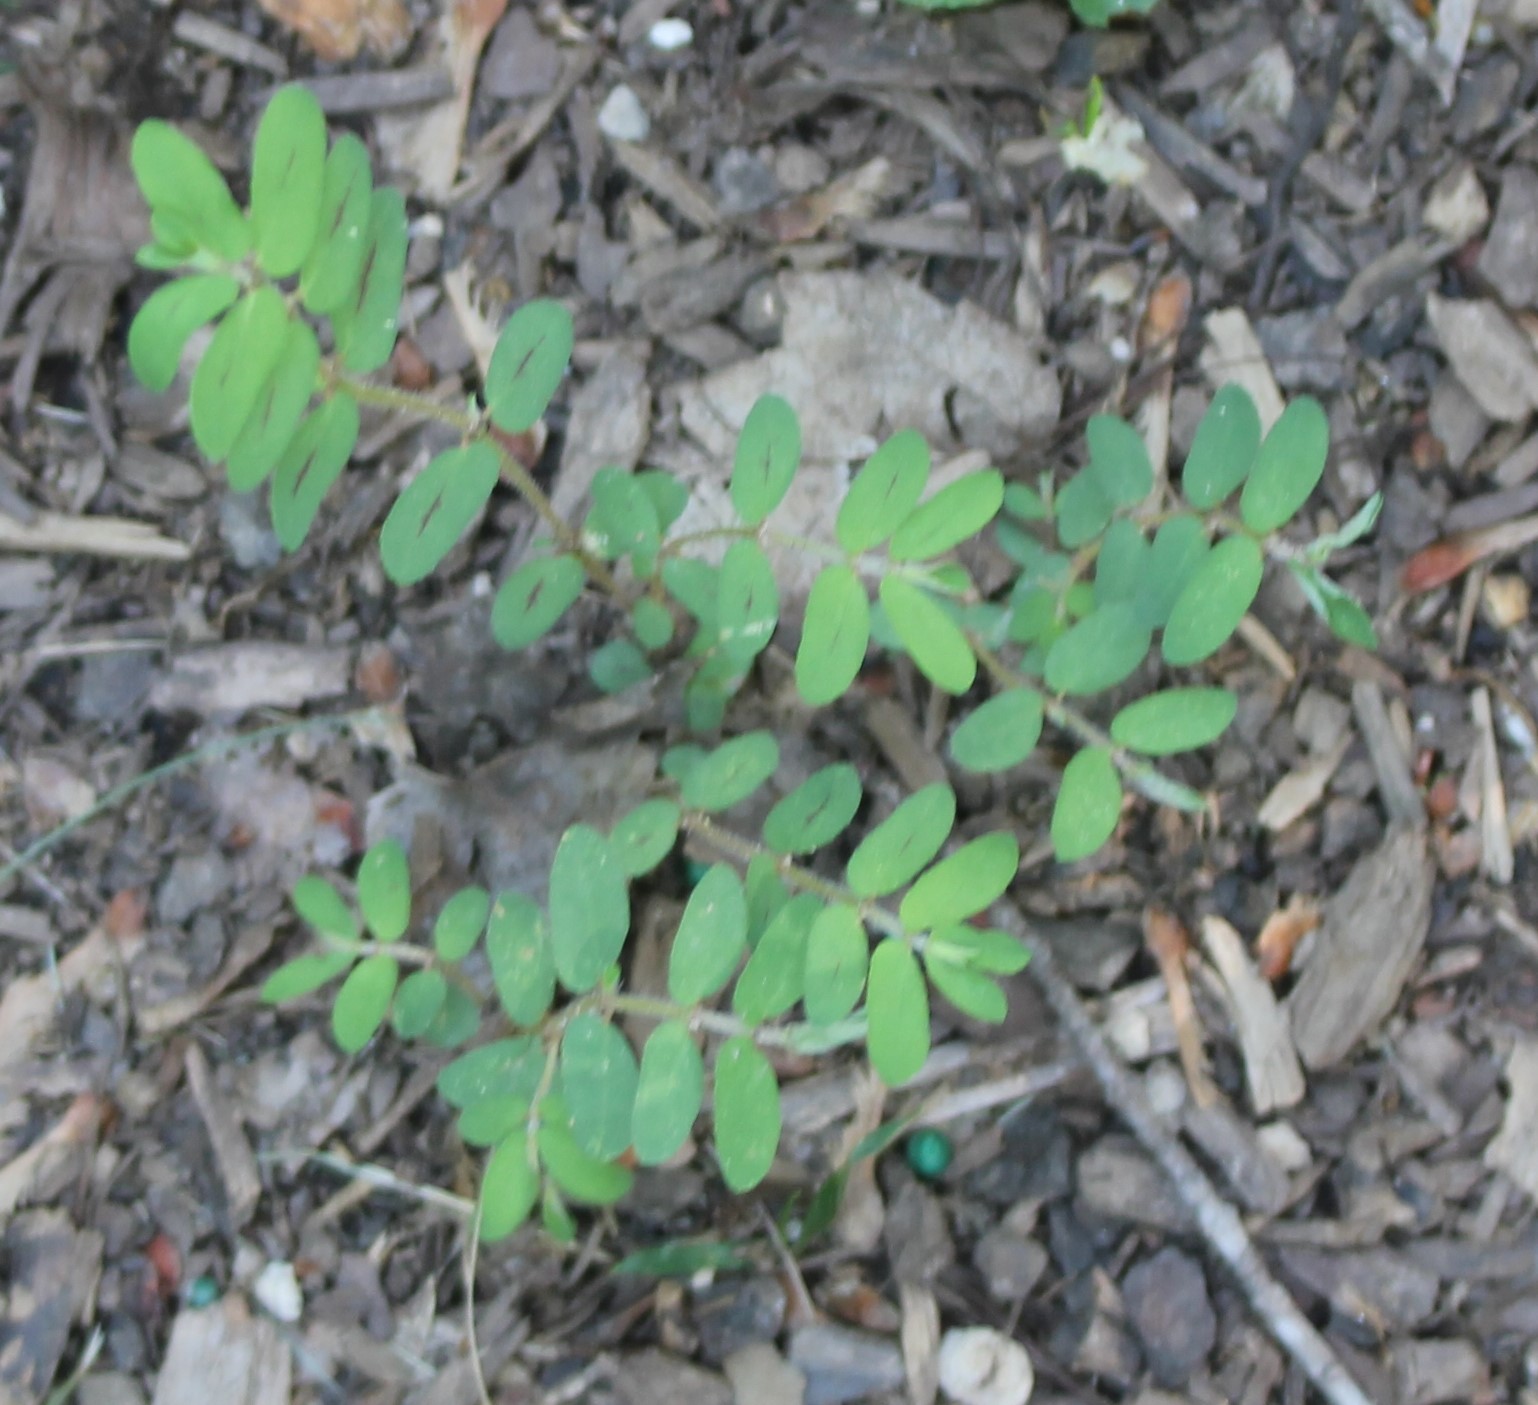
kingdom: Plantae
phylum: Tracheophyta
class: Magnoliopsida
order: Malpighiales
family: Euphorbiaceae
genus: Euphorbia
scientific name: Euphorbia maculata
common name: Spotted spurge
